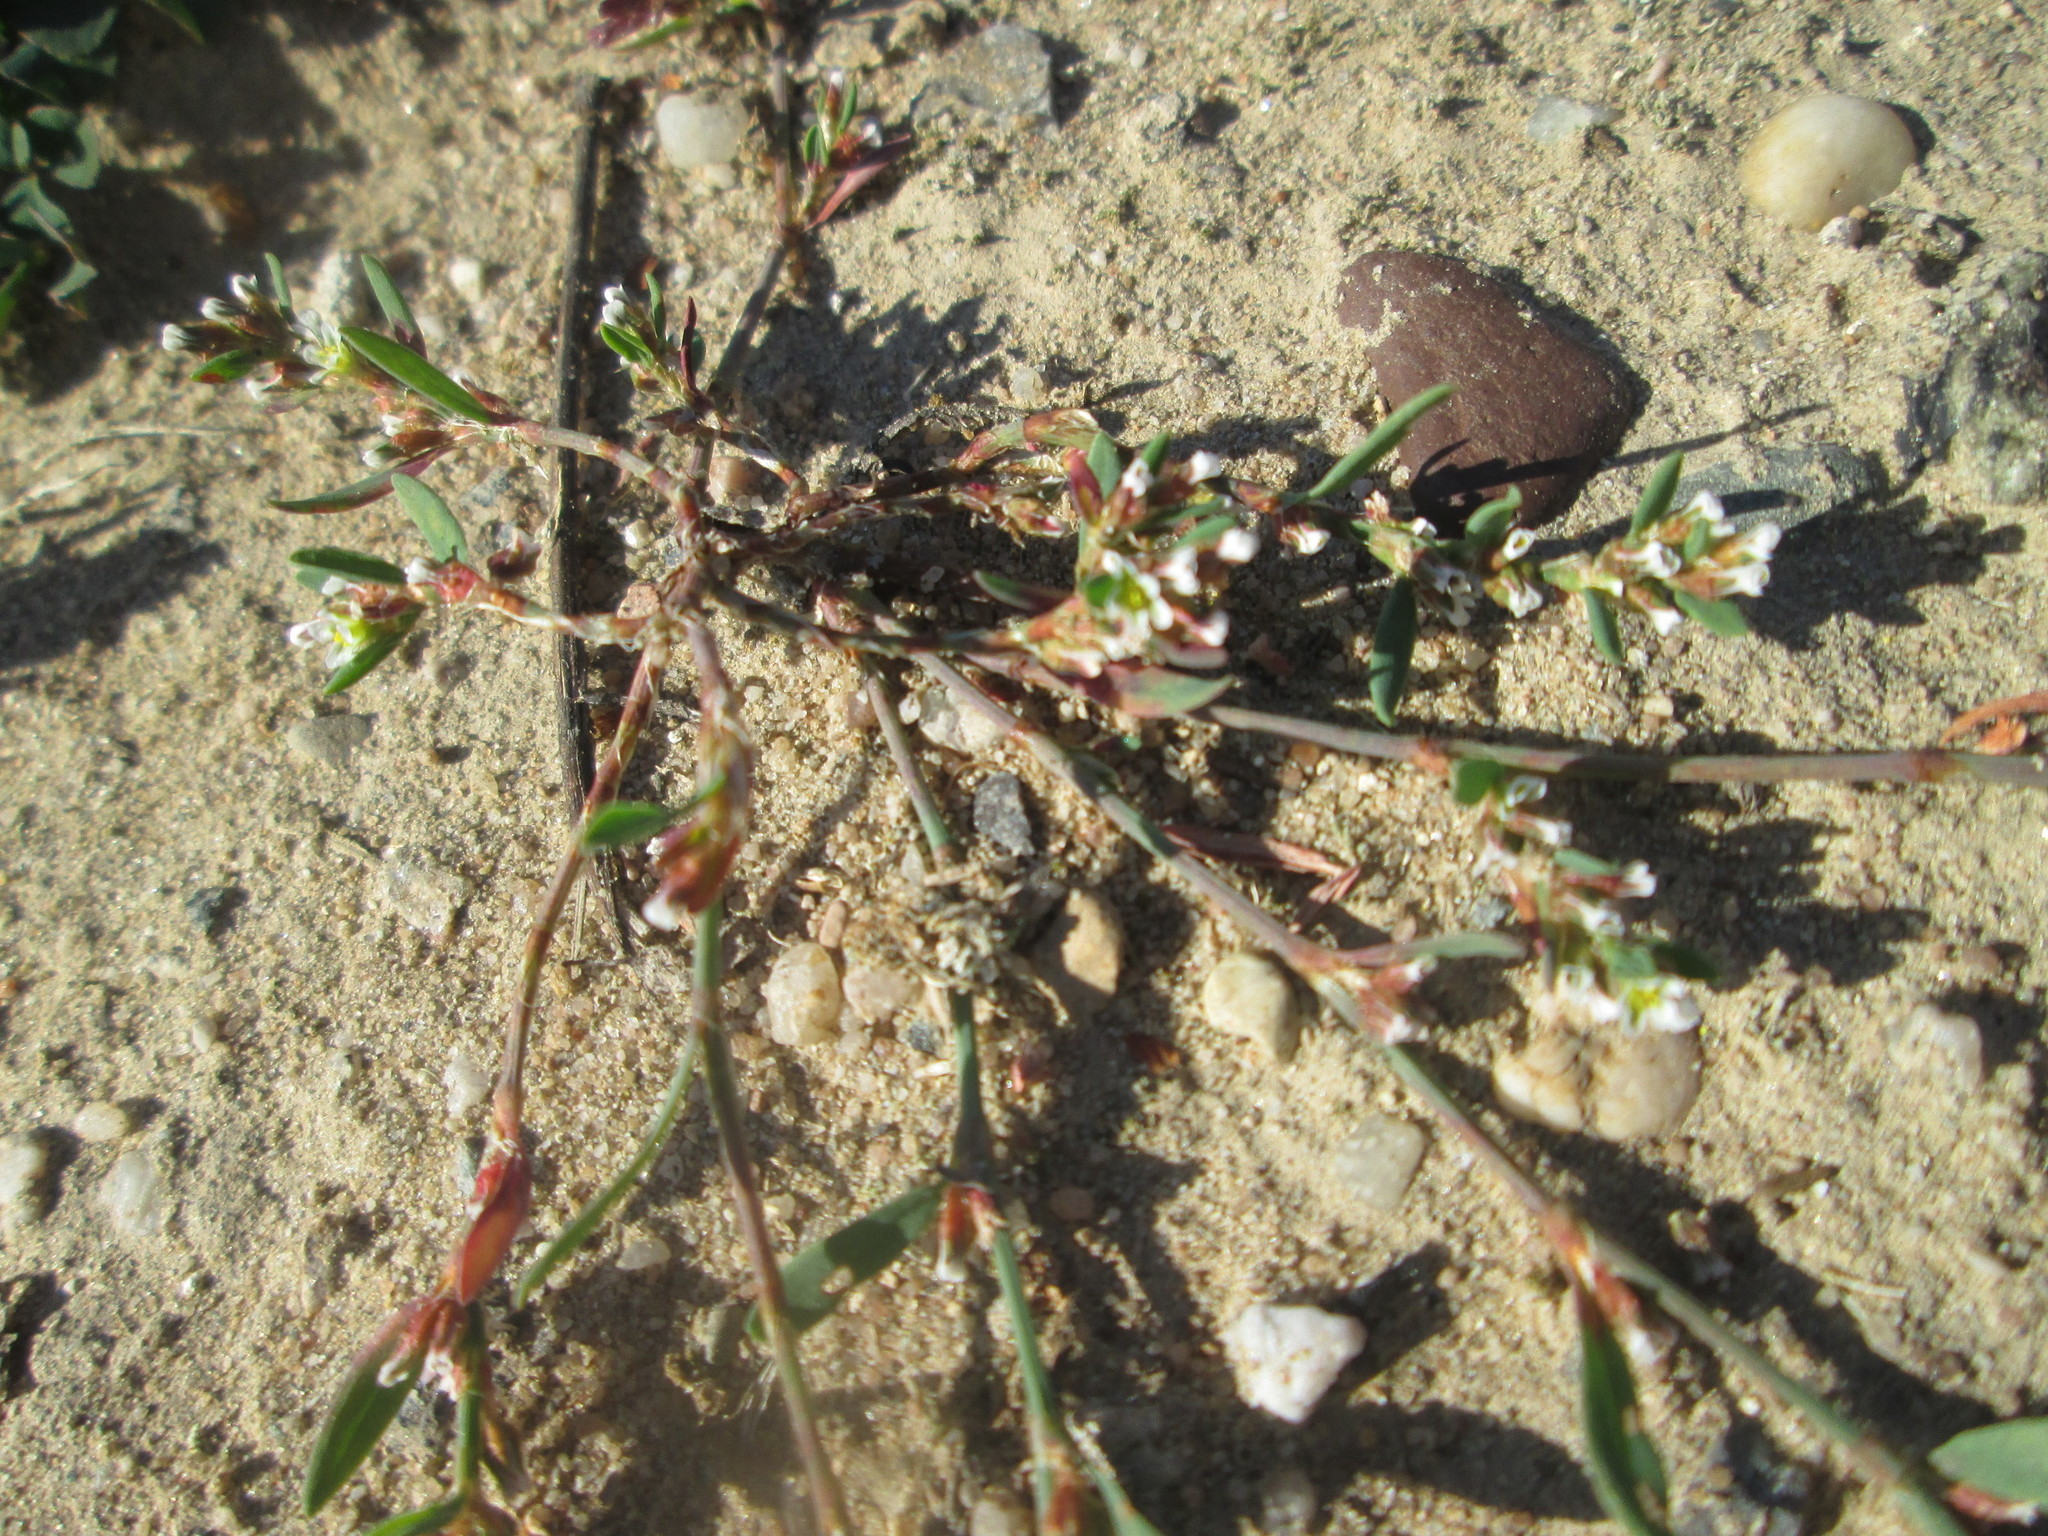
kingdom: Plantae
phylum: Tracheophyta
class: Magnoliopsida
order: Caryophyllales
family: Polygonaceae
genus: Polygonum
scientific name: Polygonum aviculare
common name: Prostrate knotweed
